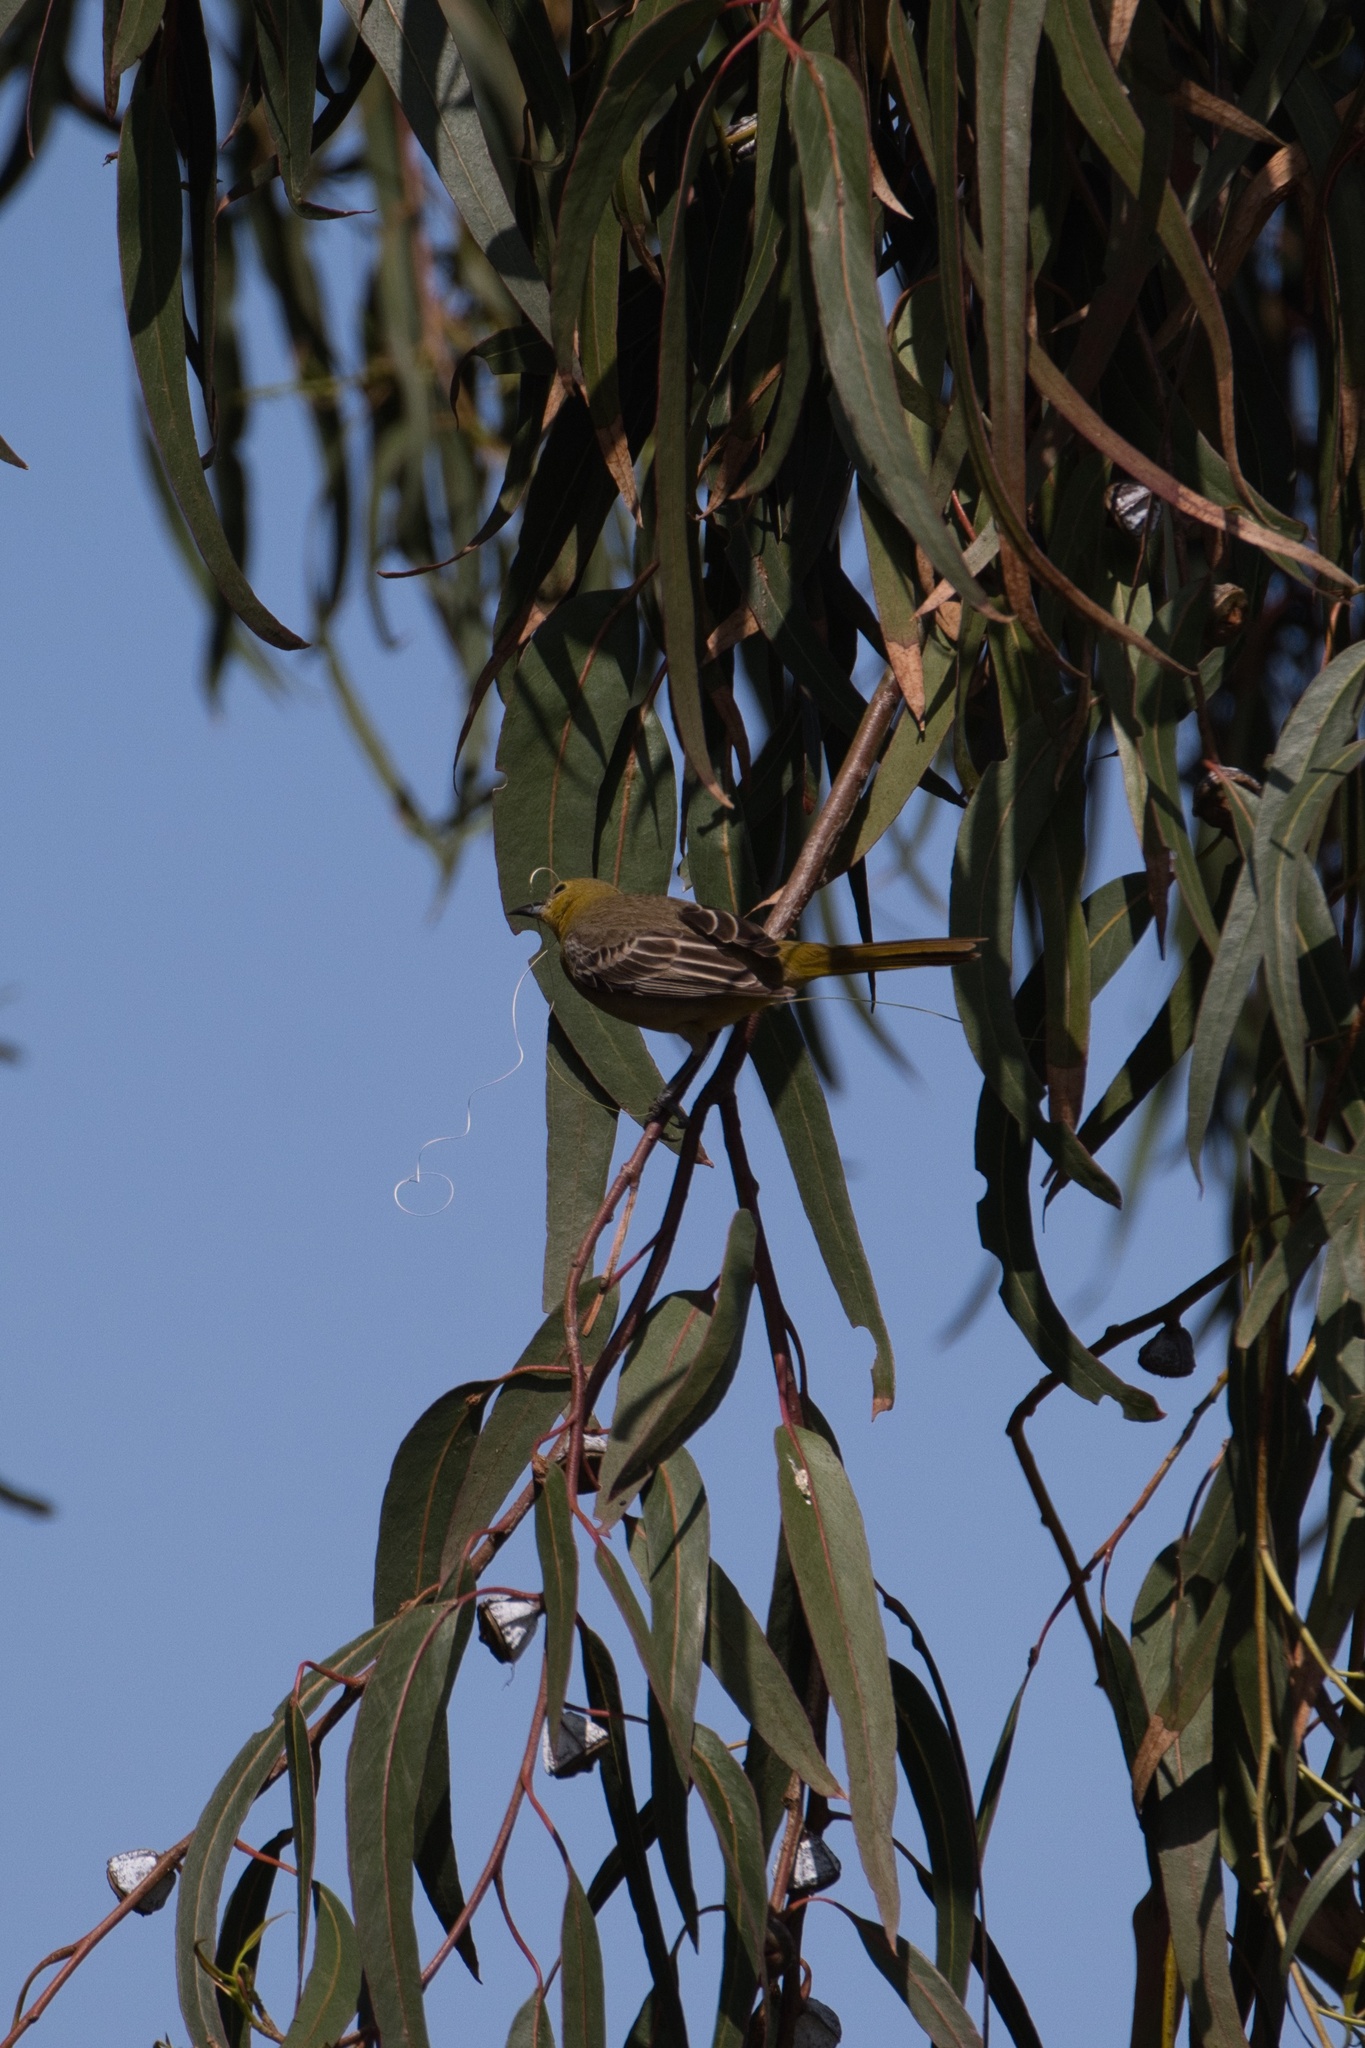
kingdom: Animalia
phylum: Chordata
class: Aves
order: Passeriformes
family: Icteridae
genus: Icterus
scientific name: Icterus cucullatus
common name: Hooded oriole
